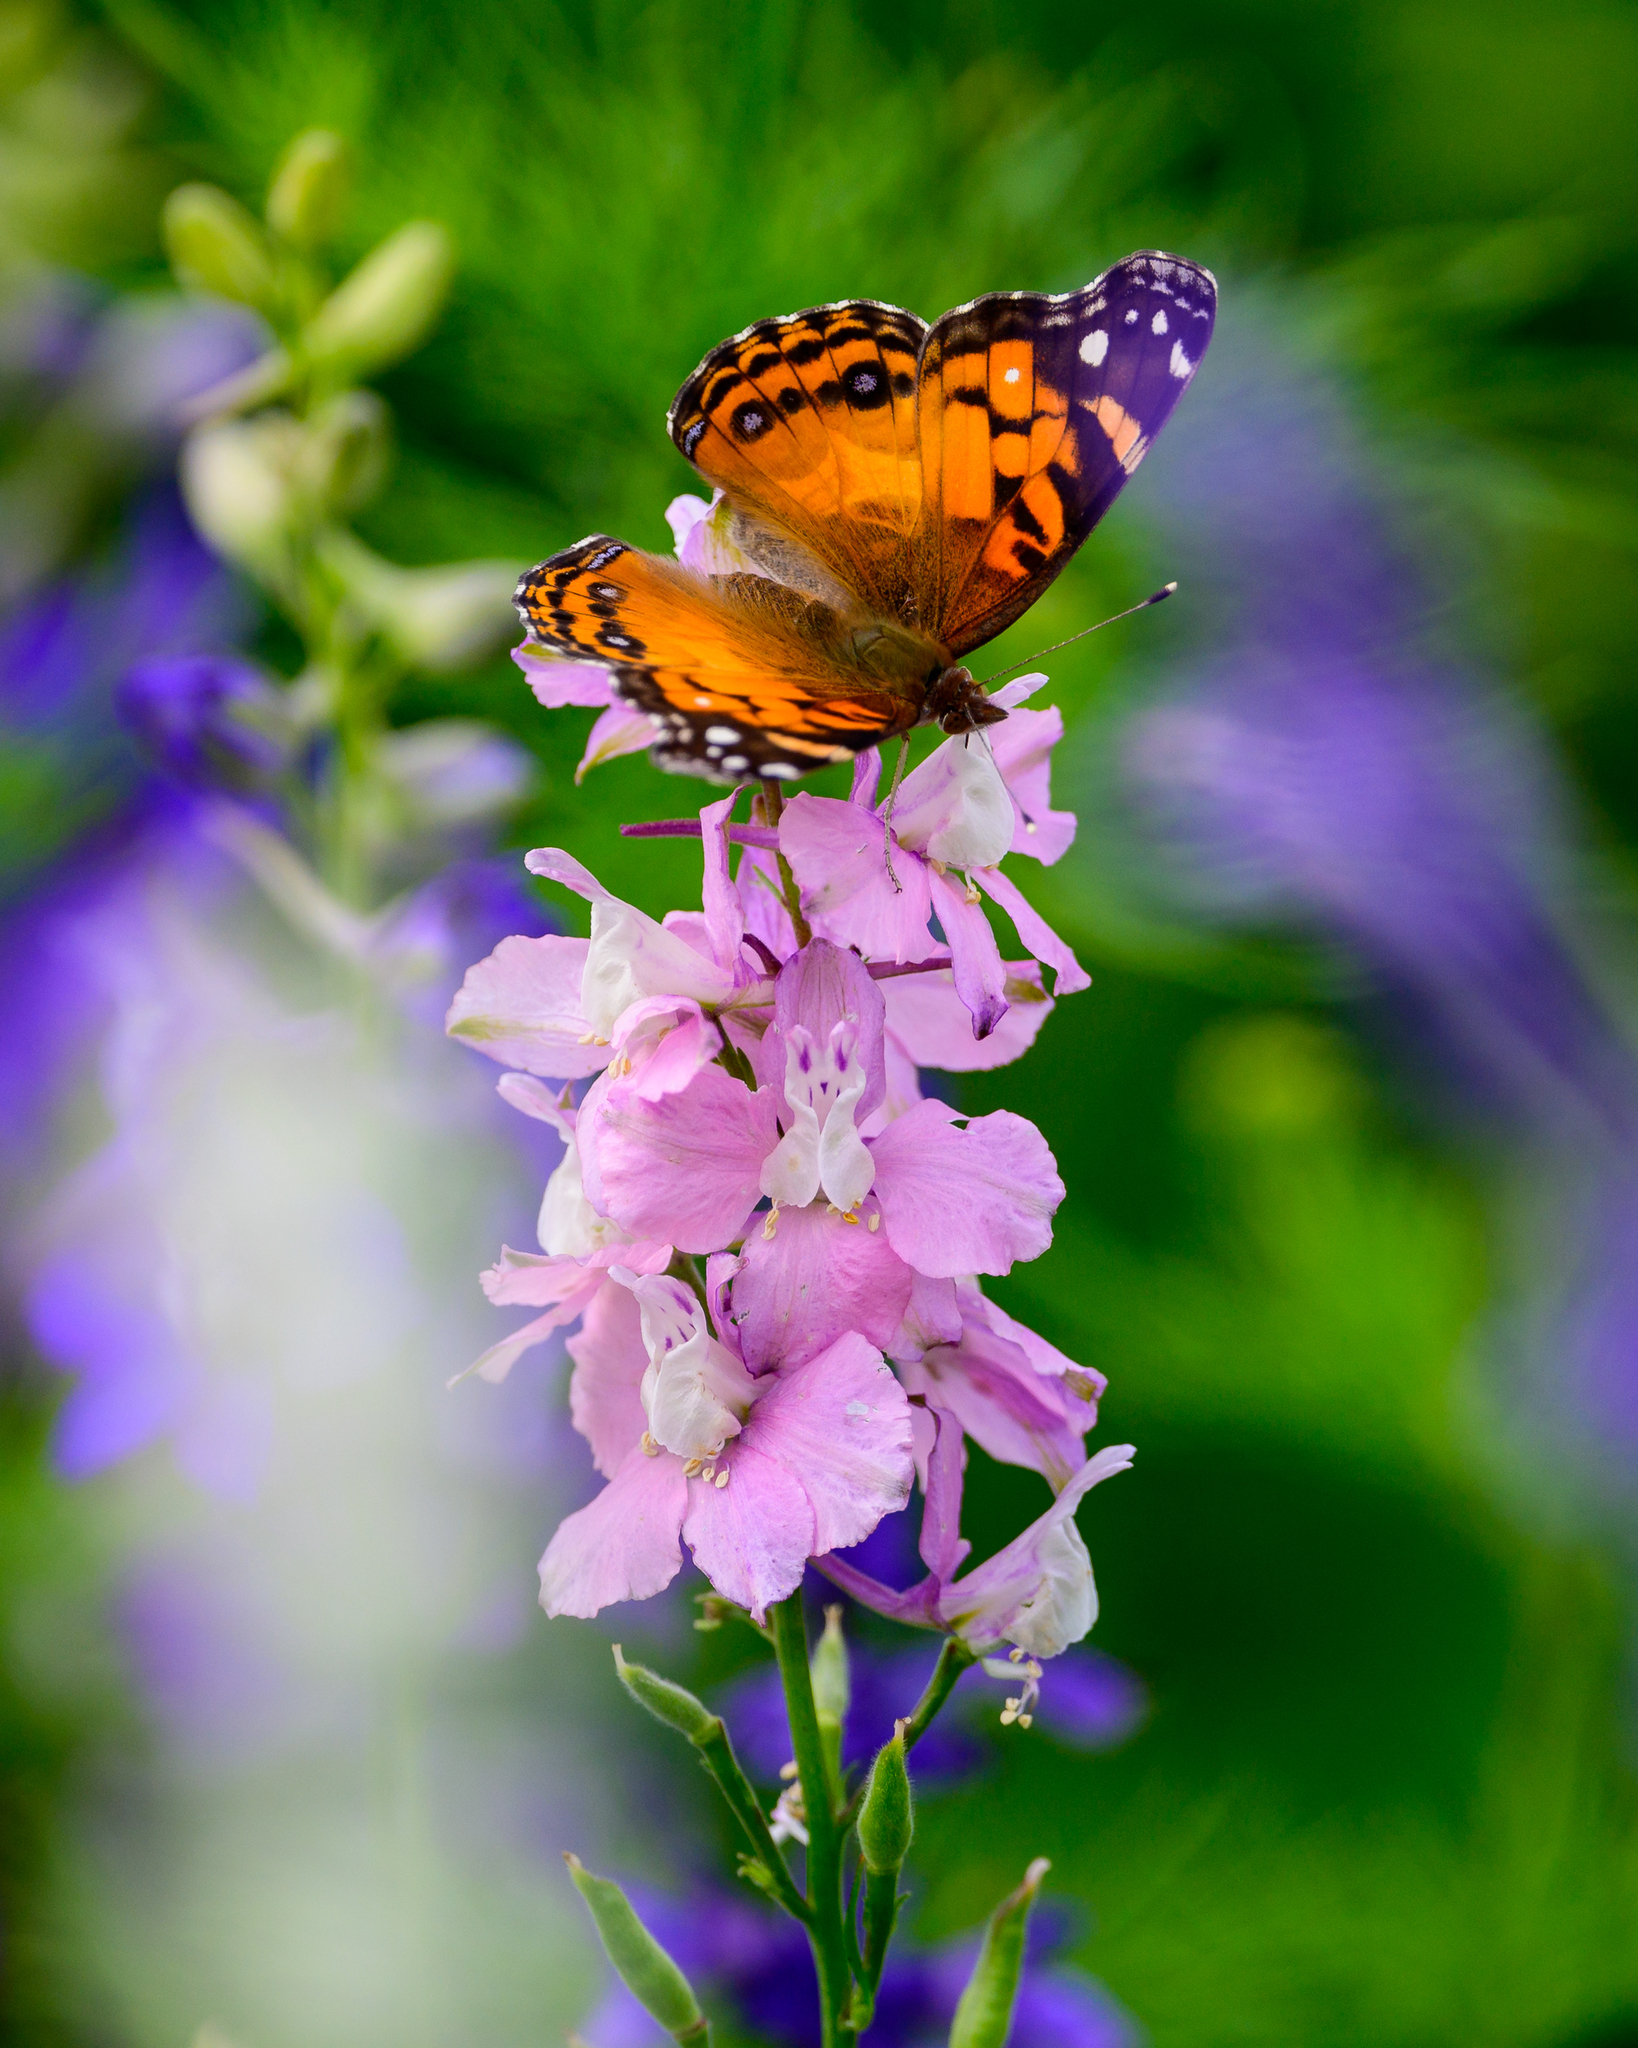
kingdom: Animalia
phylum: Arthropoda
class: Insecta
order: Lepidoptera
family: Nymphalidae
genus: Vanessa
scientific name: Vanessa virginiensis
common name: American lady
